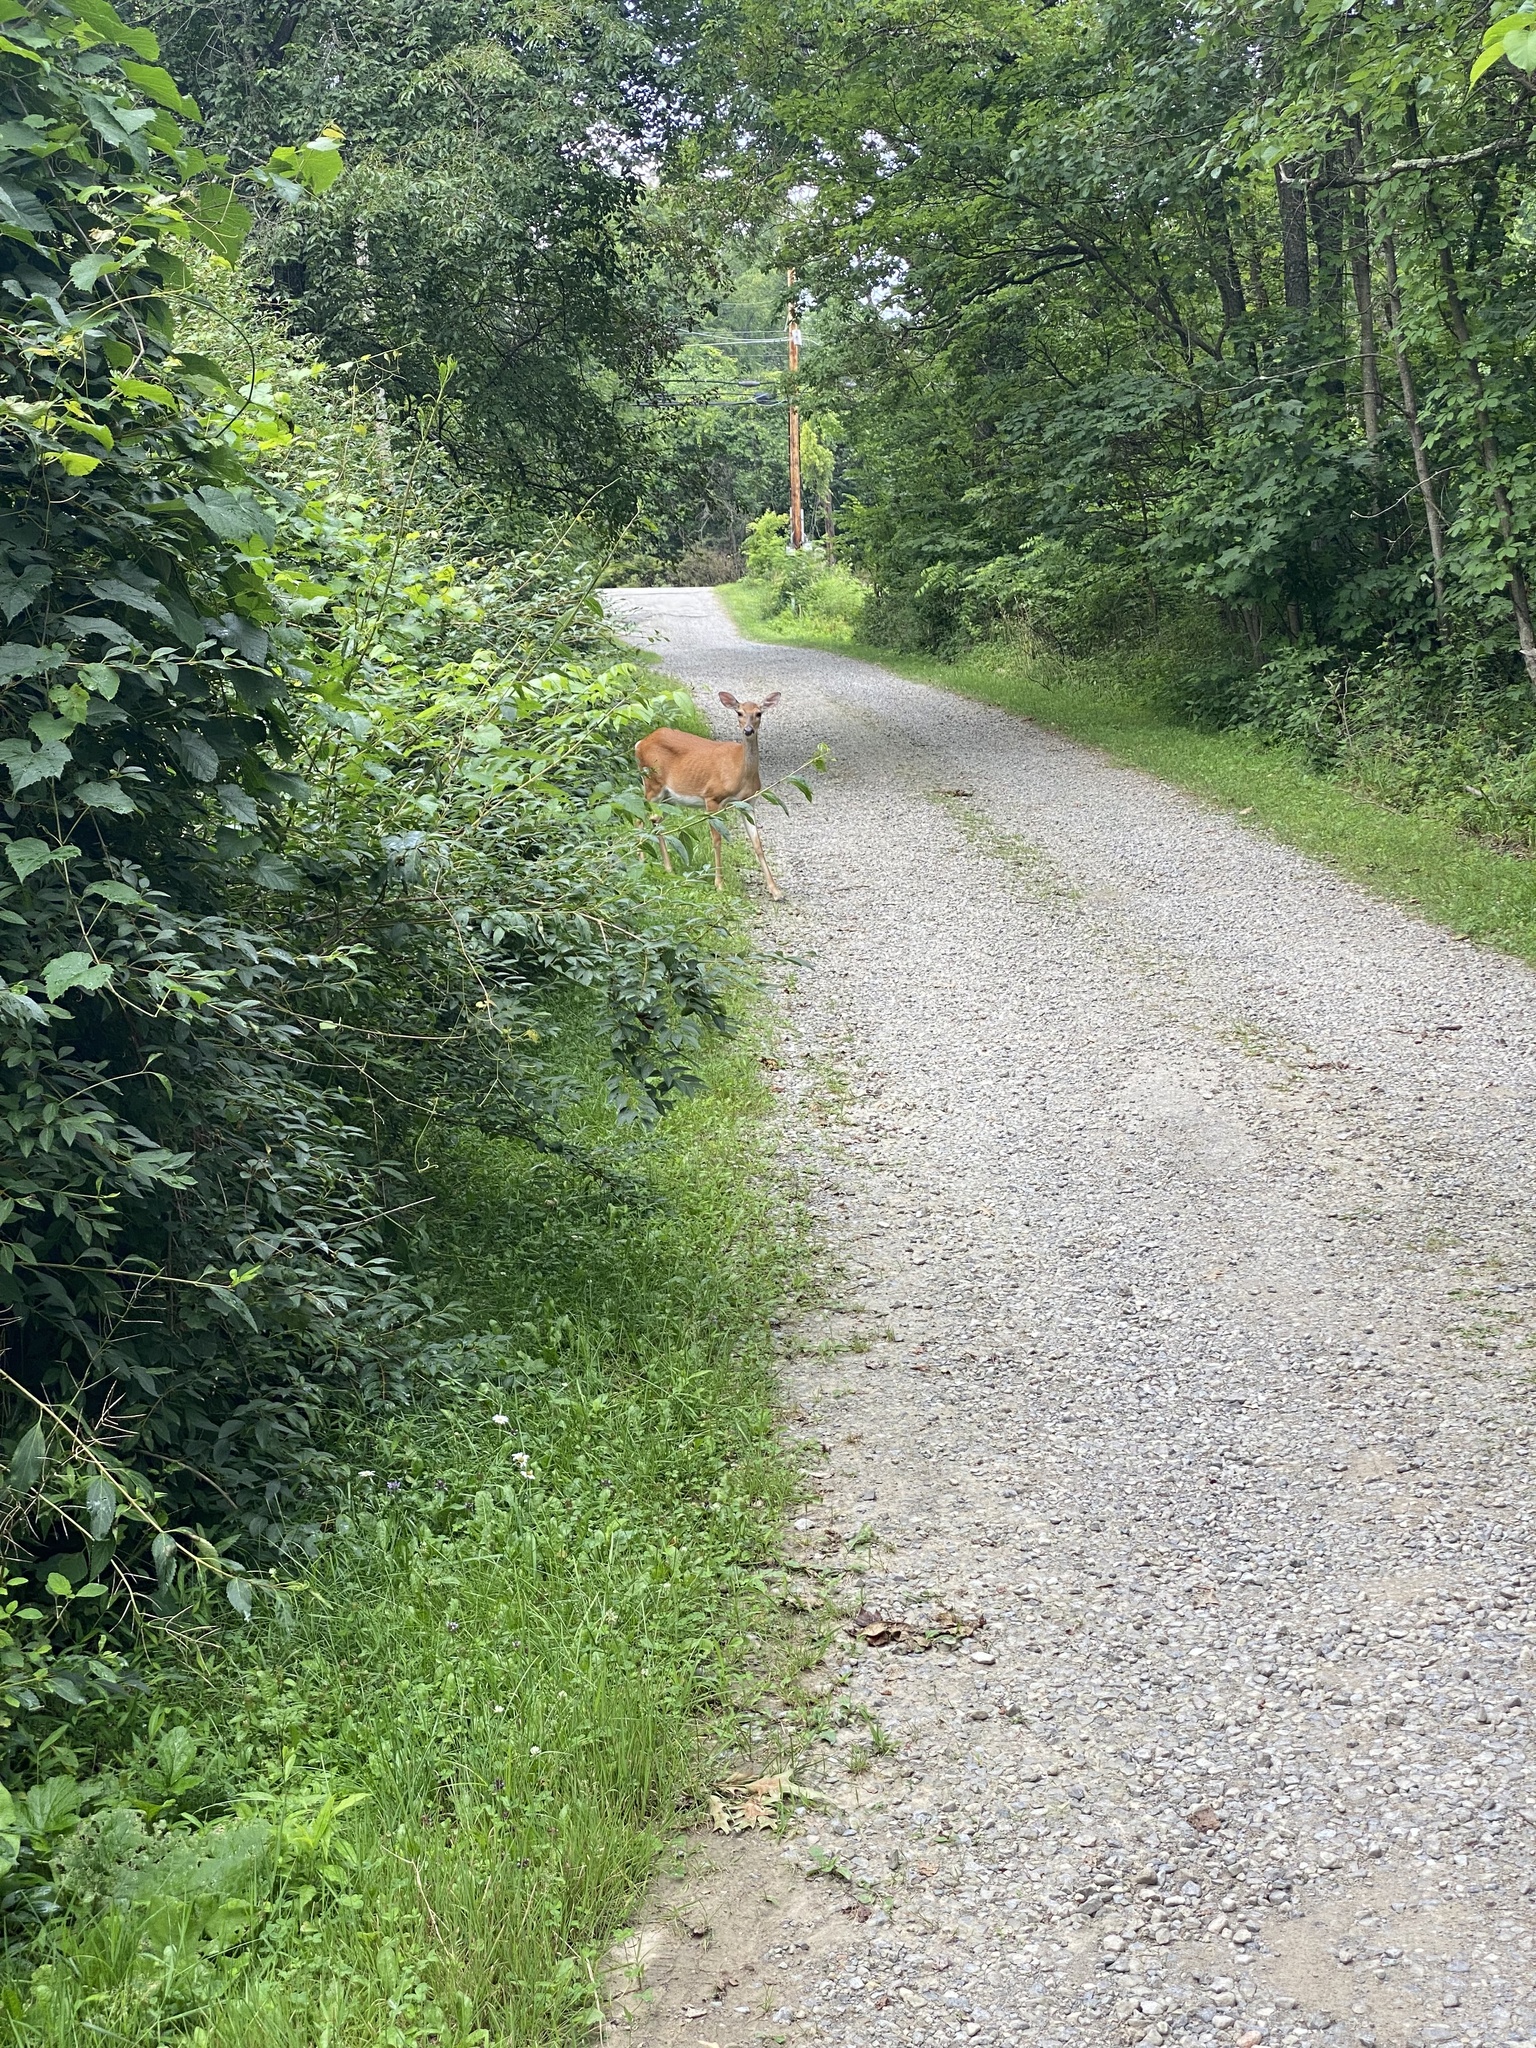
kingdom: Animalia
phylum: Chordata
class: Mammalia
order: Artiodactyla
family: Cervidae
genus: Odocoileus
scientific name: Odocoileus virginianus
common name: White-tailed deer
